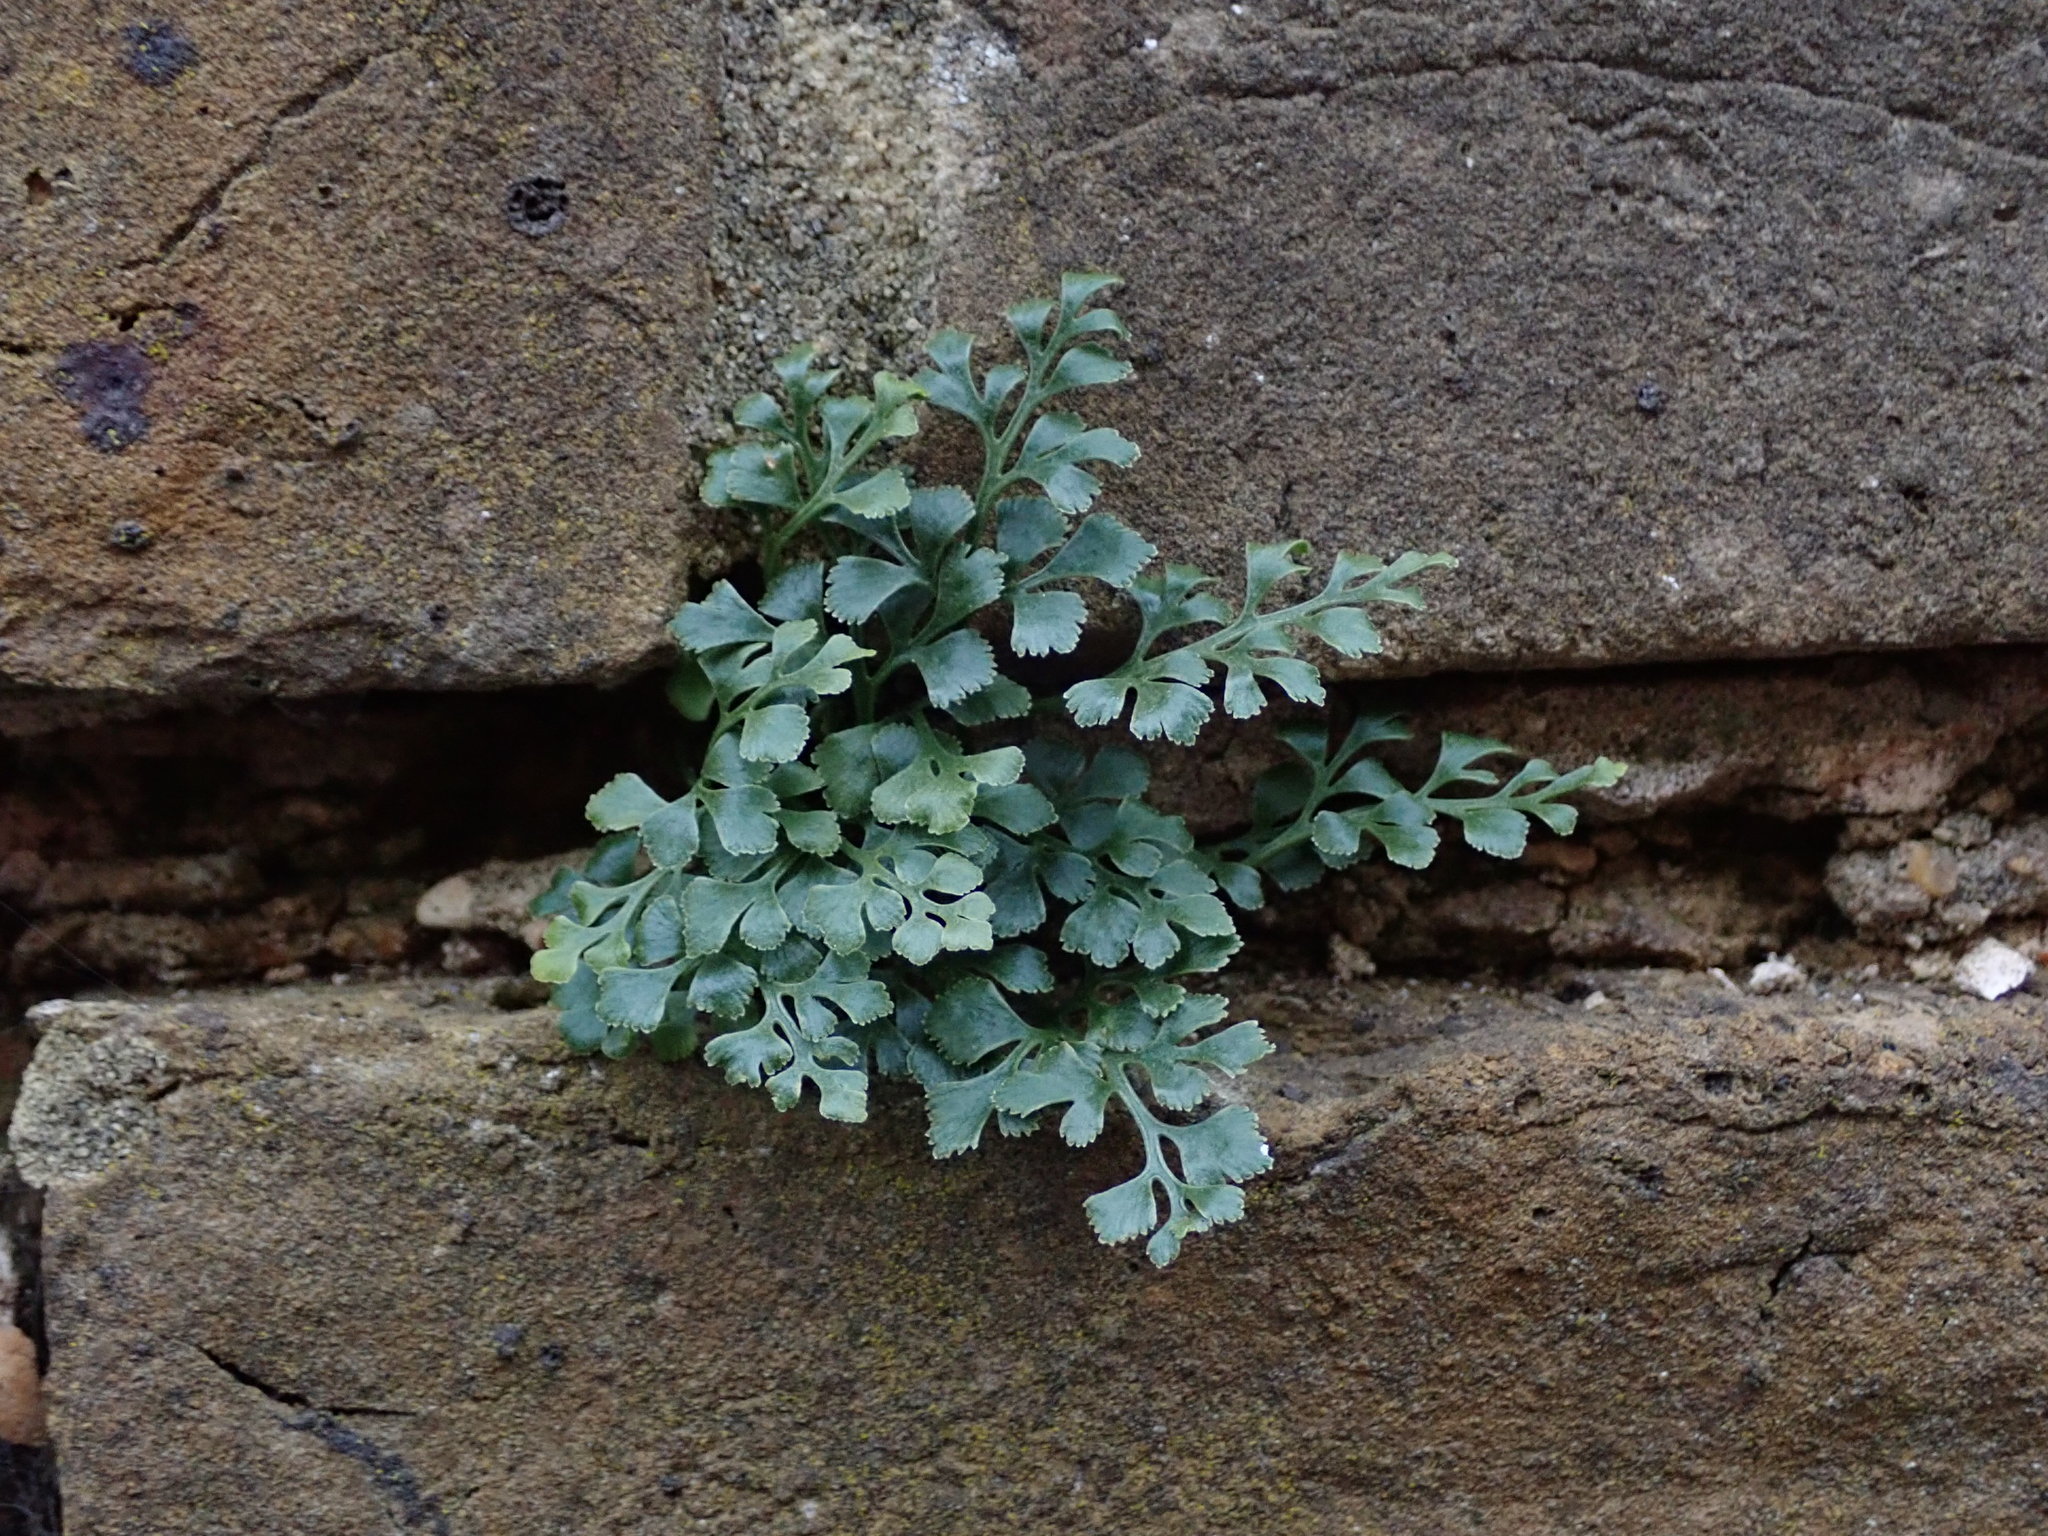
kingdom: Plantae
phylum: Tracheophyta
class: Polypodiopsida
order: Polypodiales
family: Aspleniaceae
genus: Asplenium
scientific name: Asplenium ruta-muraria
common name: Wall-rue
